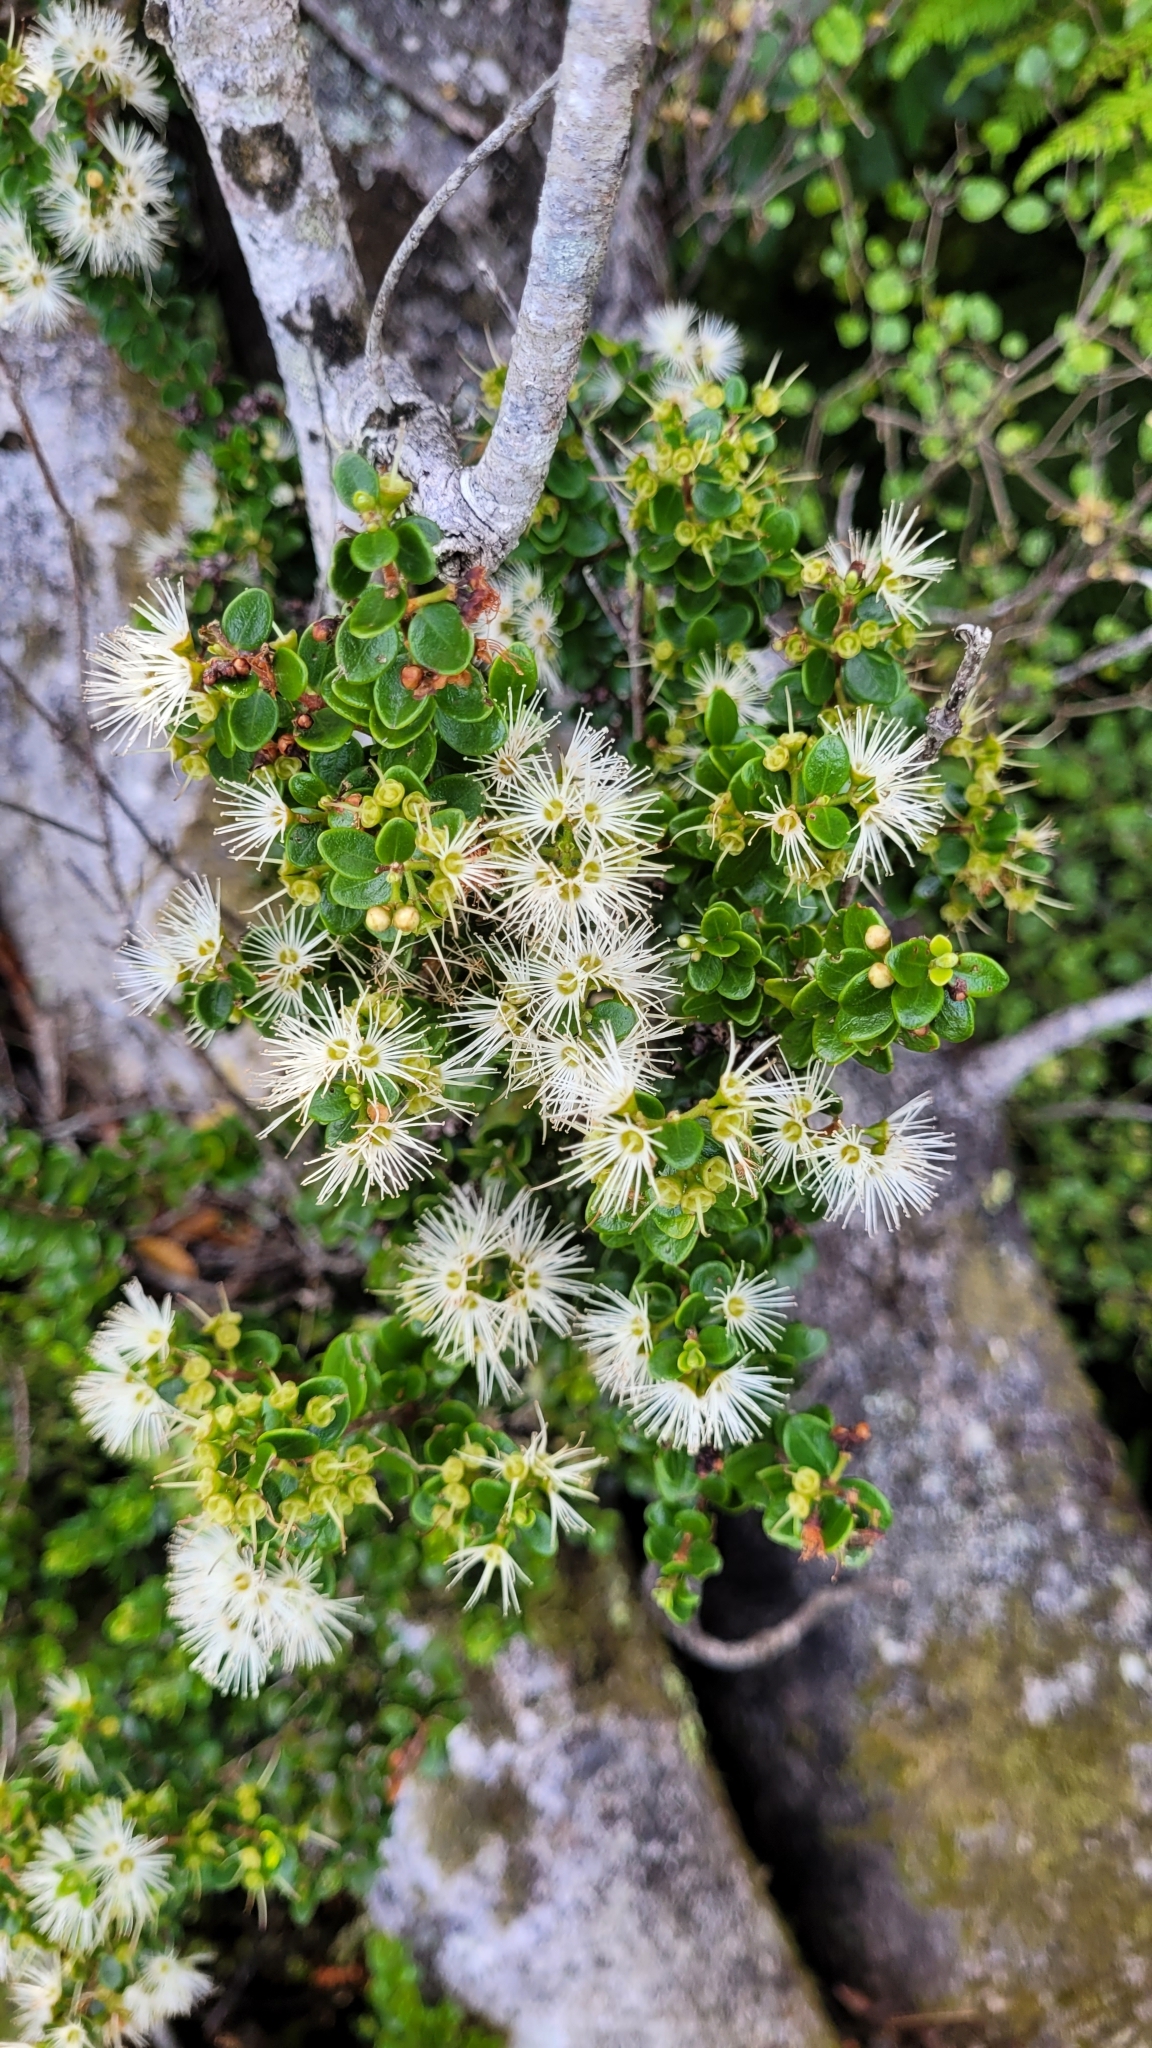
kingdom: Plantae
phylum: Tracheophyta
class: Magnoliopsida
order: Myrtales
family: Myrtaceae
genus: Metrosideros
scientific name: Metrosideros perforata
